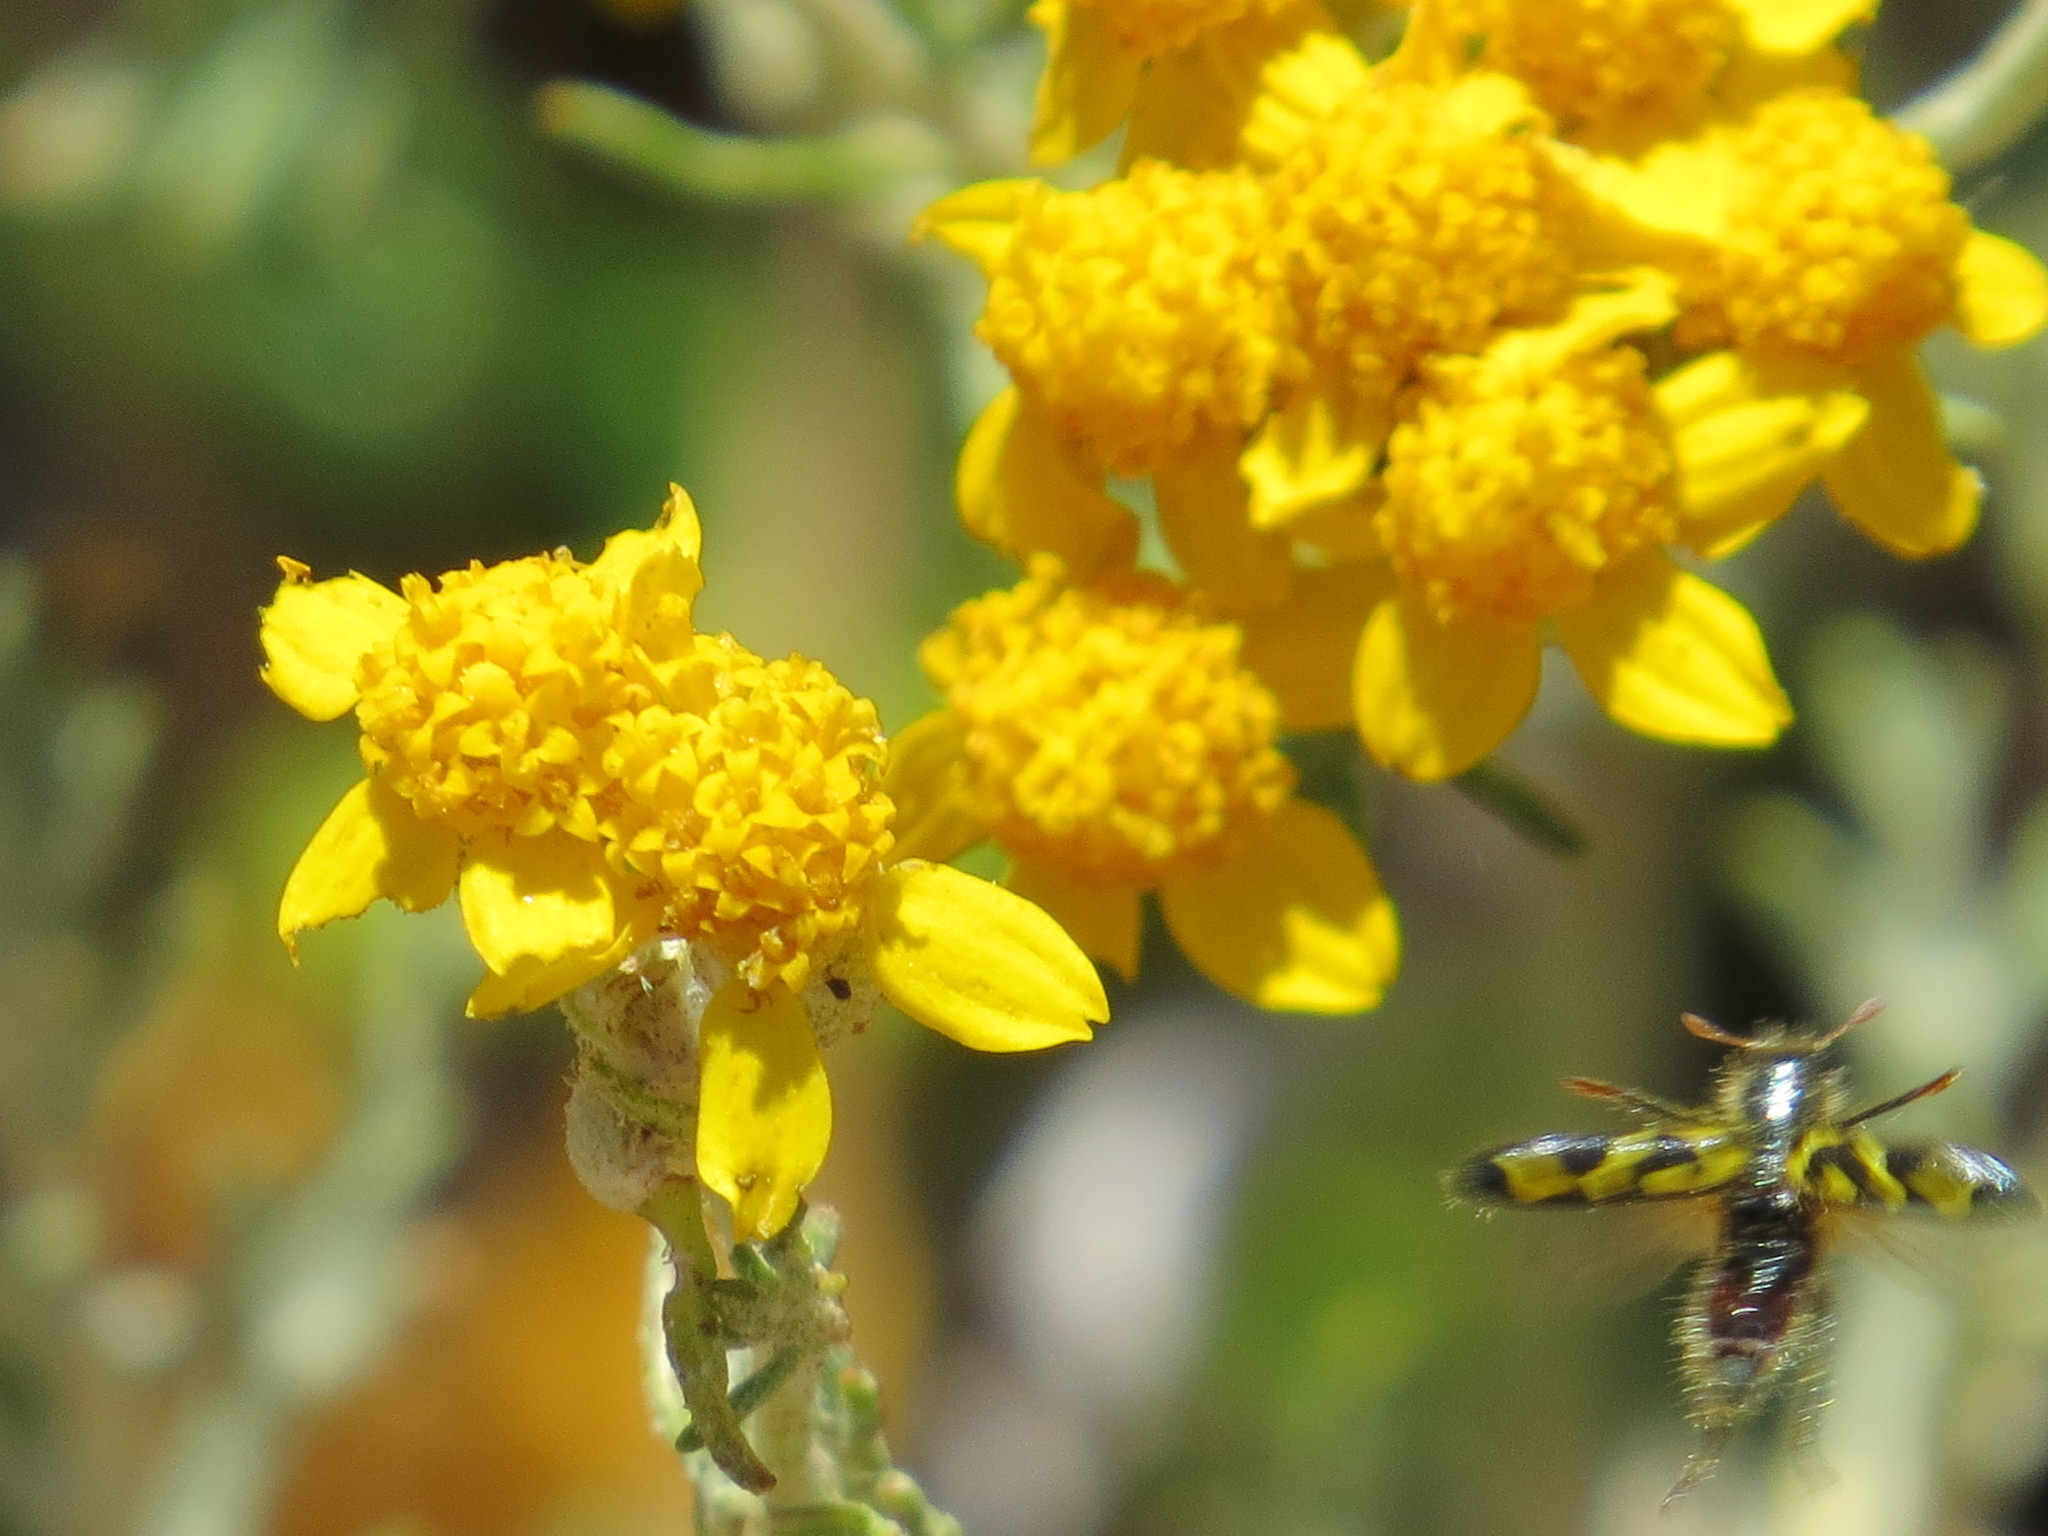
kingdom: Animalia
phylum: Arthropoda
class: Insecta
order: Coleoptera
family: Cleridae
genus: Trichodes
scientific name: Trichodes ornatus
